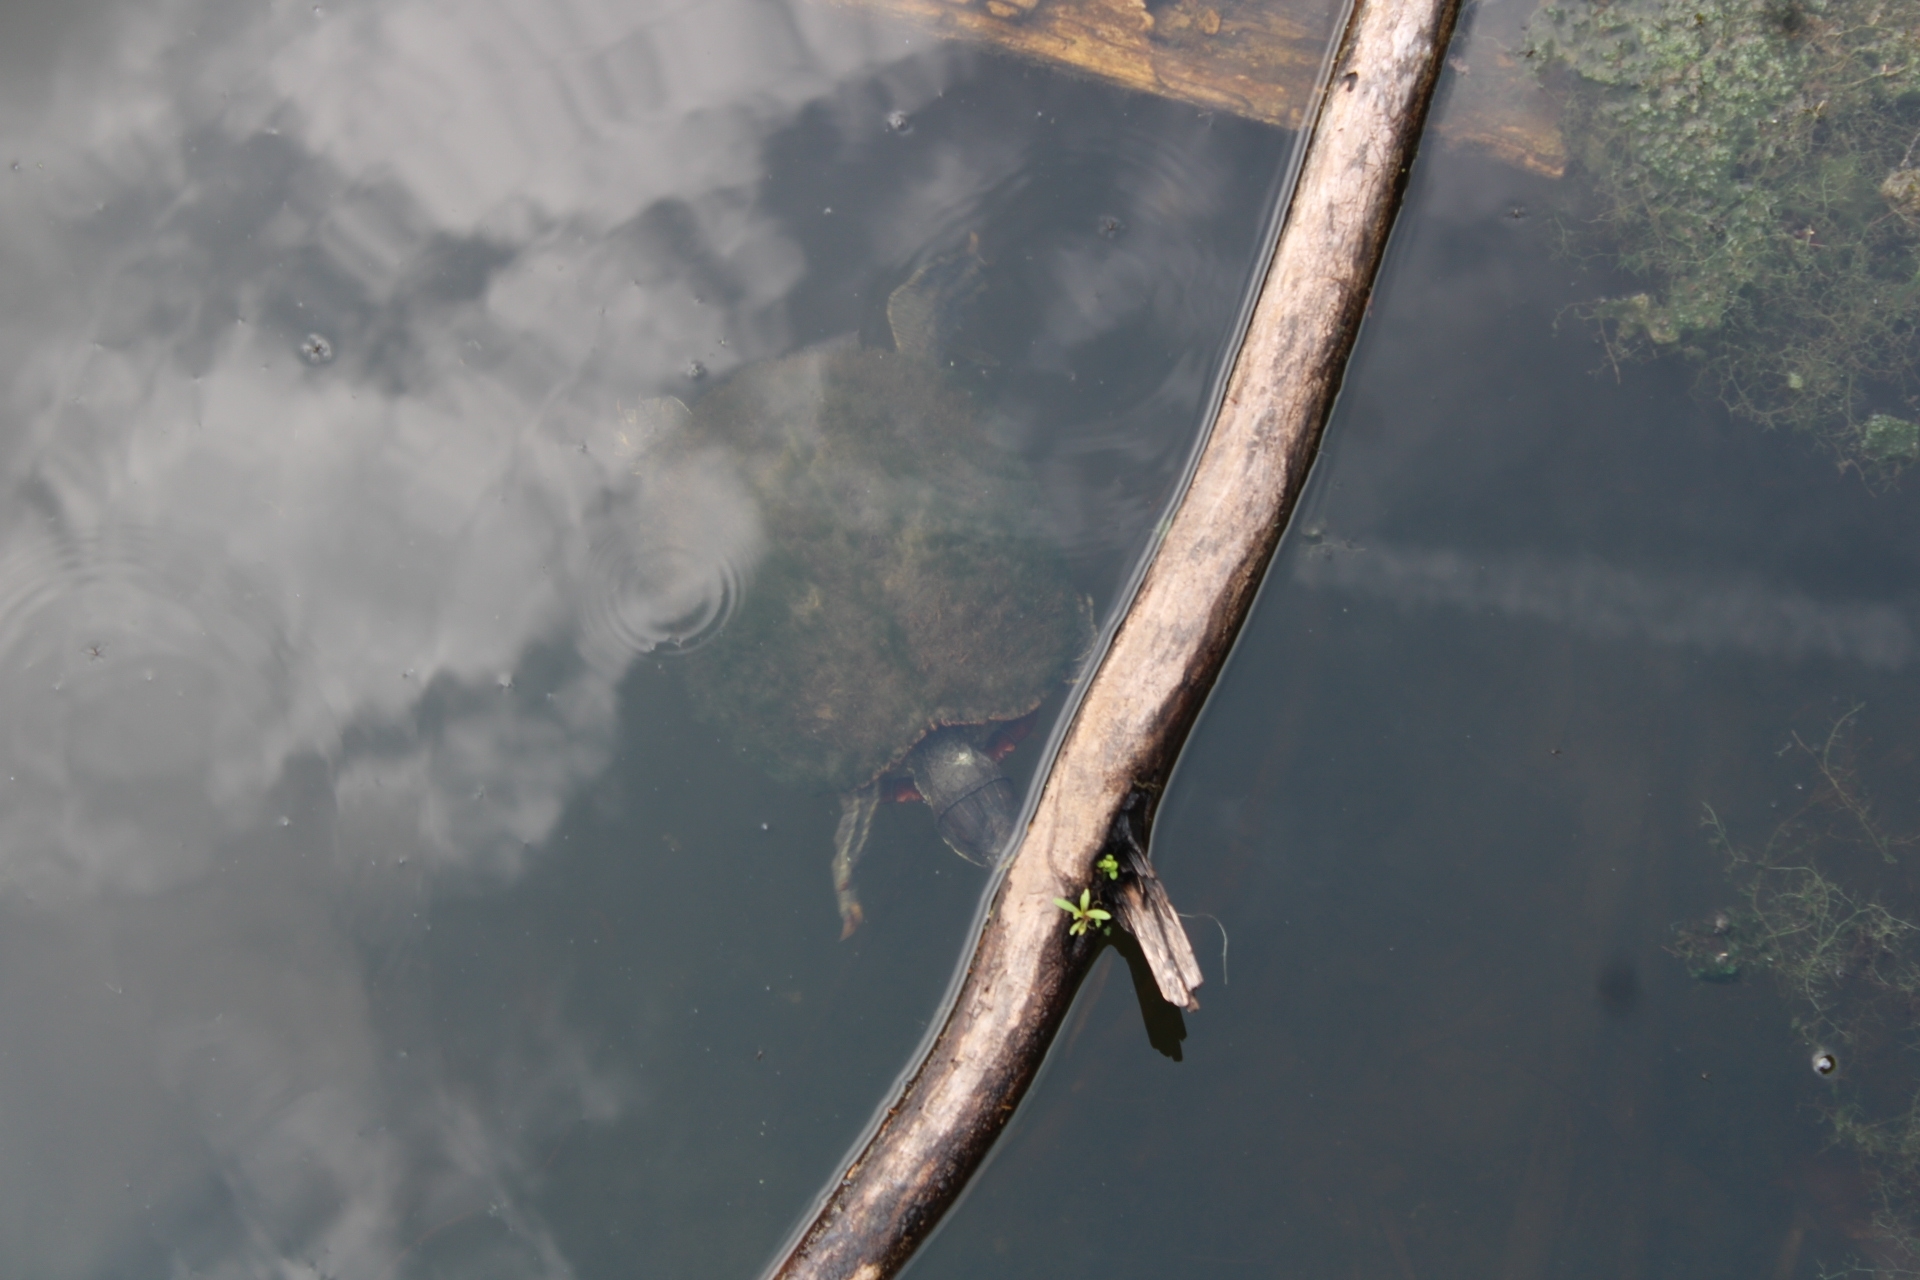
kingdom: Animalia
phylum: Chordata
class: Testudines
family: Emydidae
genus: Trachemys
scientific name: Trachemys scripta
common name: Slider
